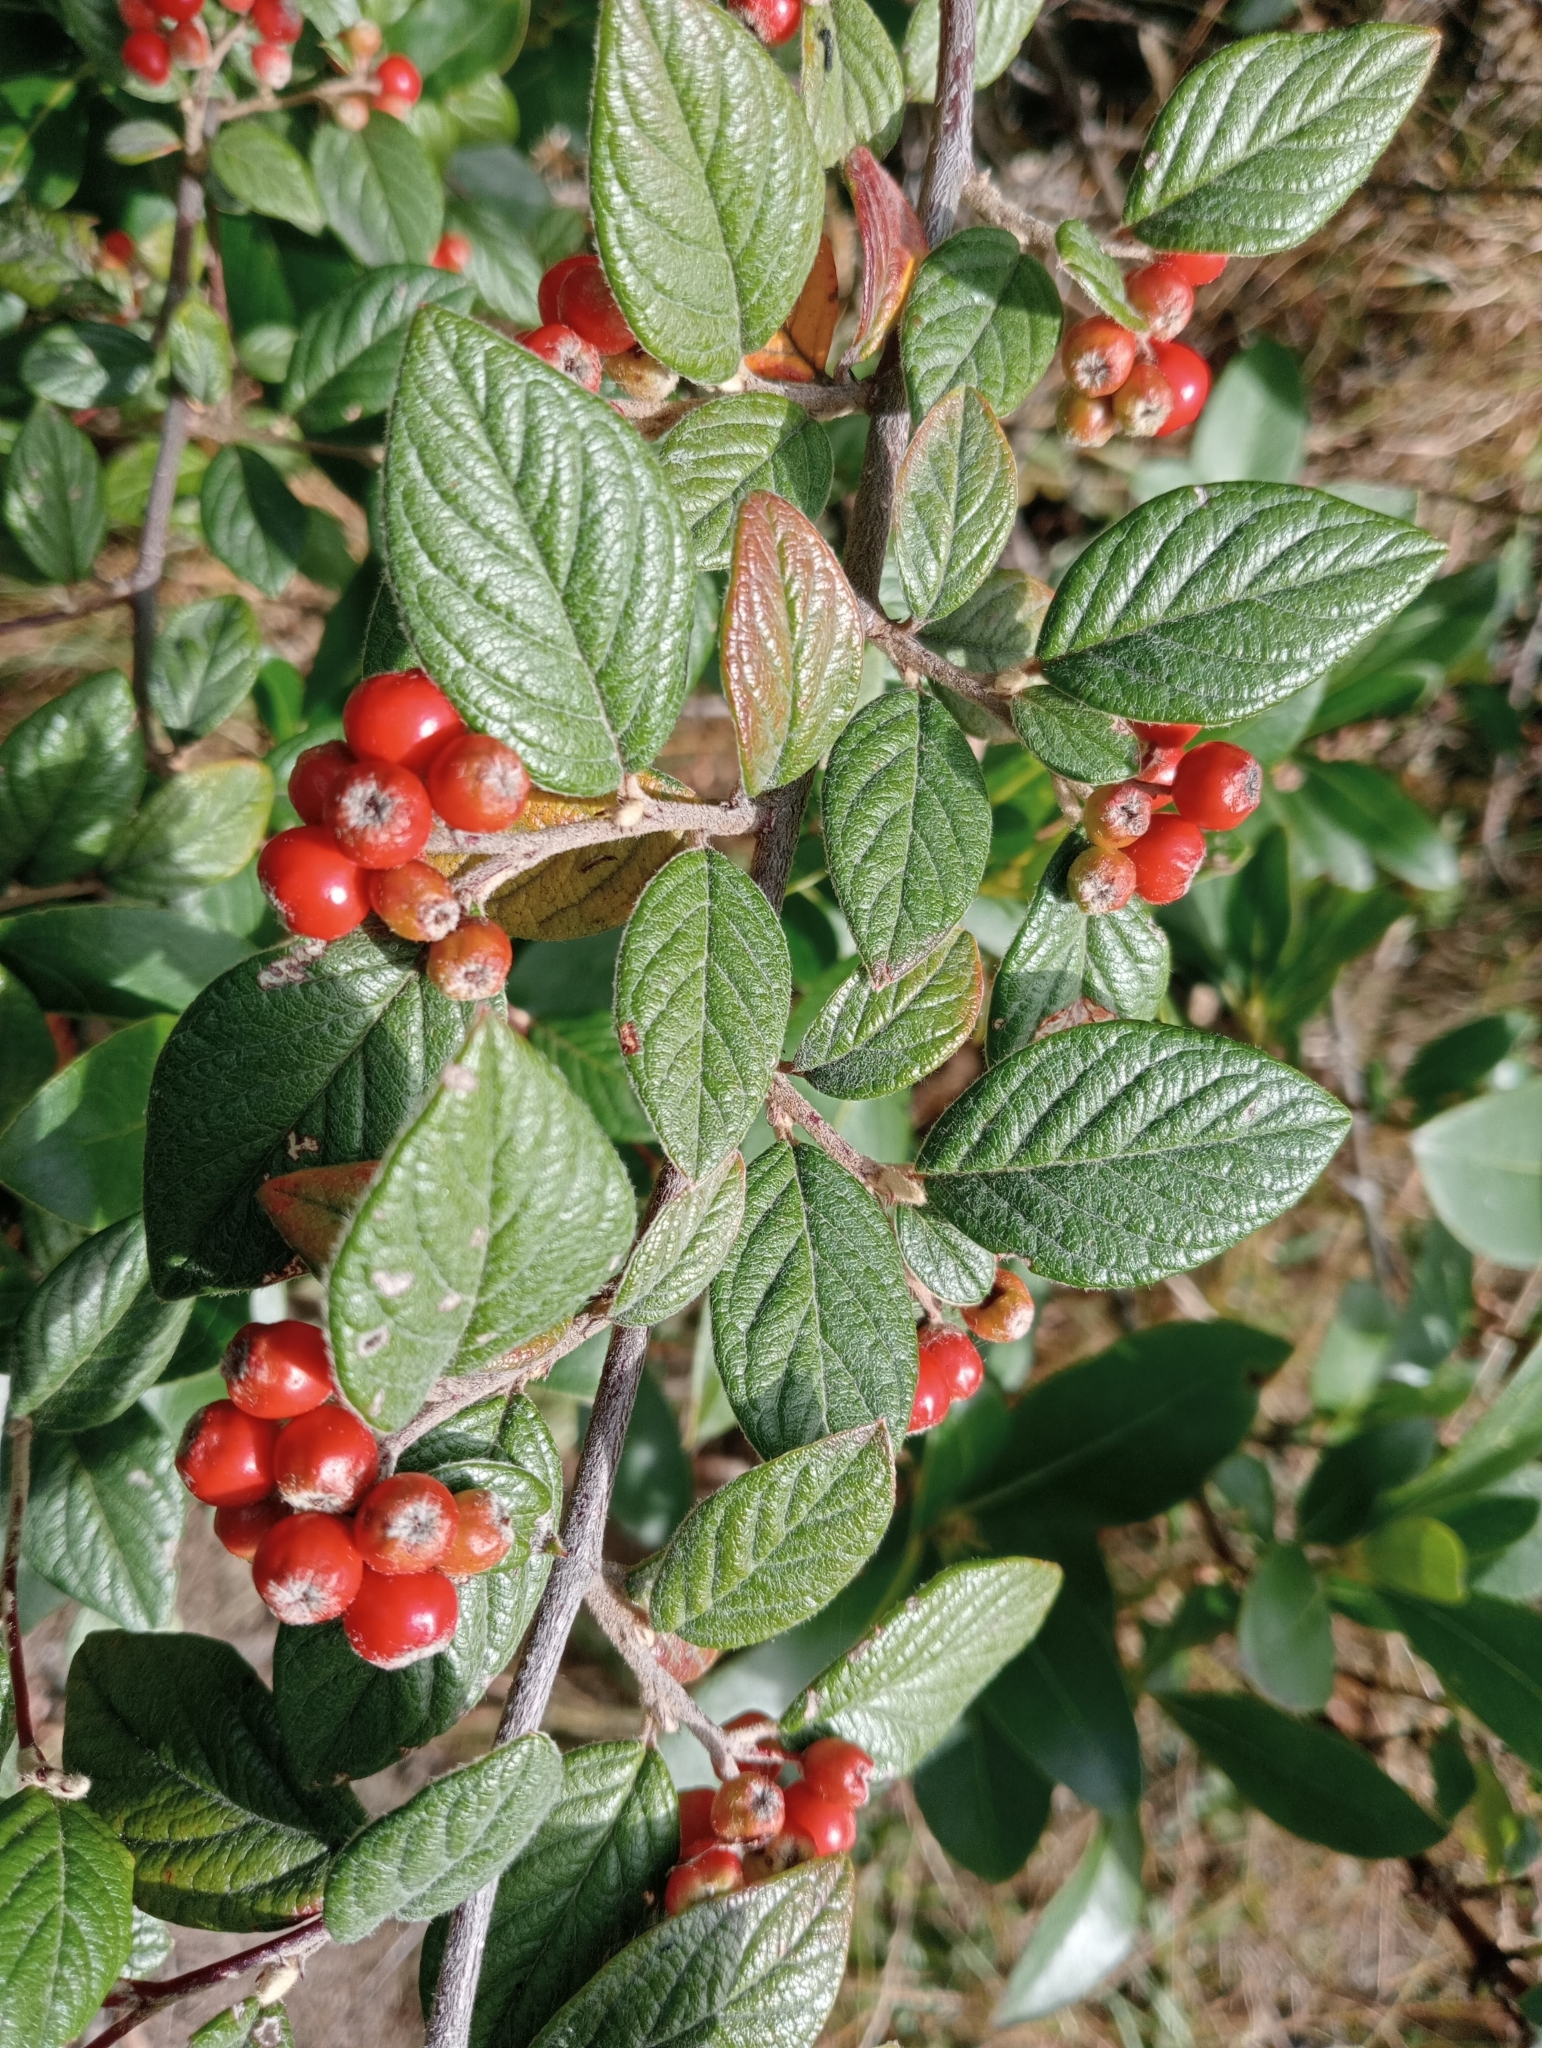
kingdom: Plantae
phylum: Tracheophyta
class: Magnoliopsida
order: Rosales
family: Rosaceae
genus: Cotoneaster
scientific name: Cotoneaster franchetii
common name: Franchet's cotoneaster
